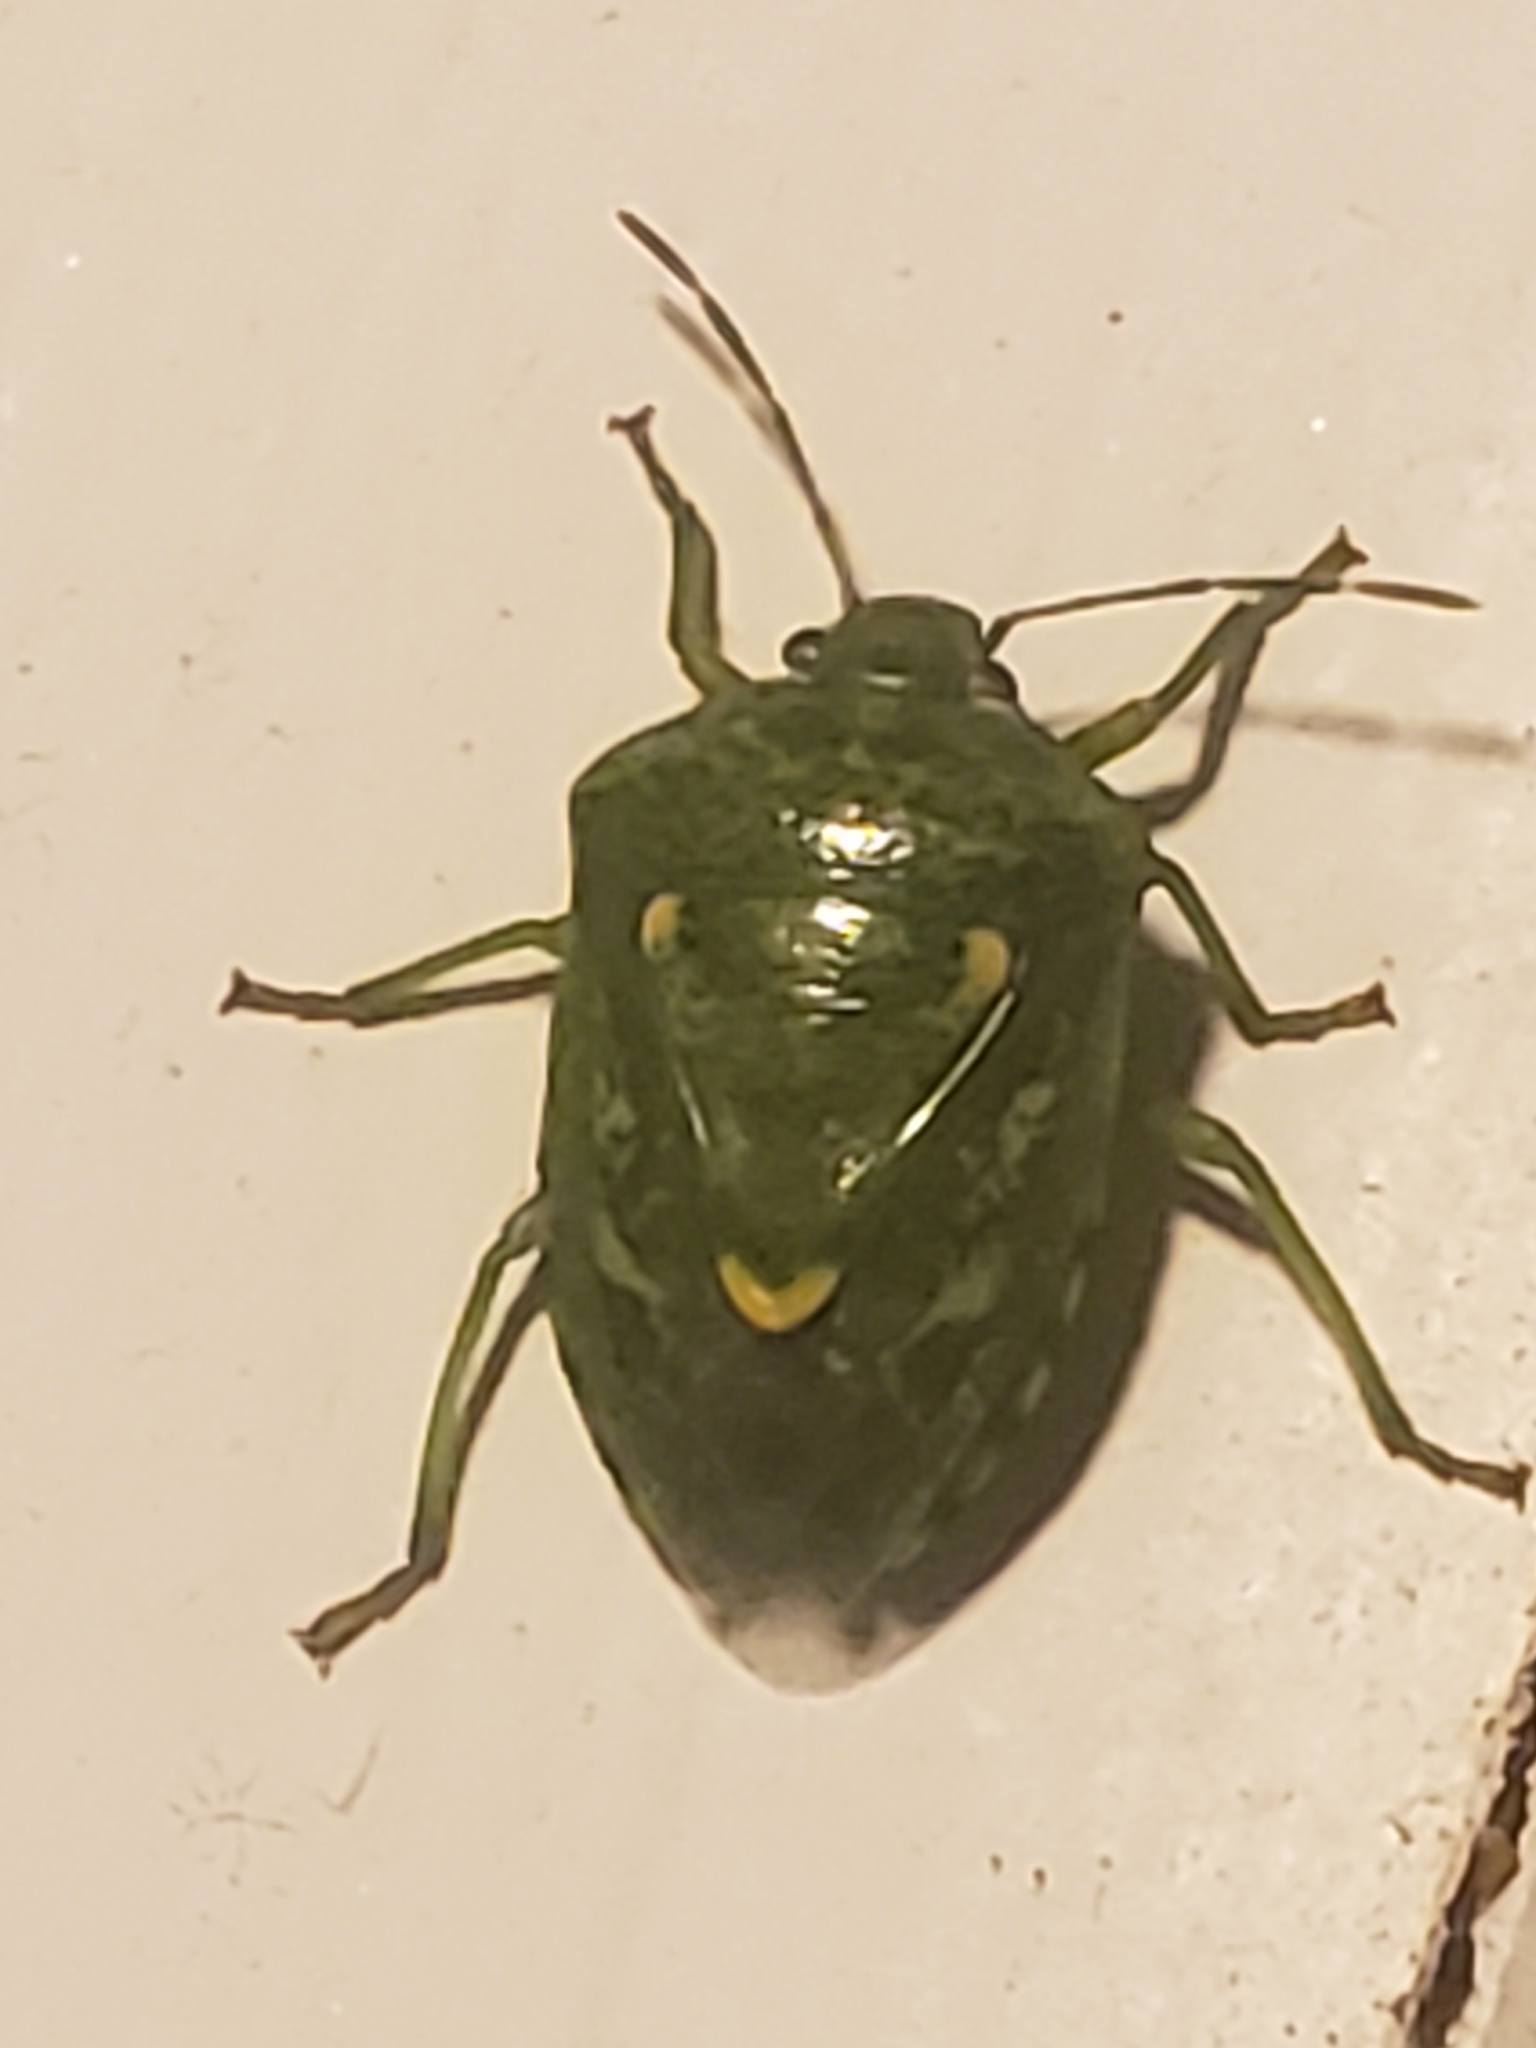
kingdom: Animalia
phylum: Arthropoda
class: Insecta
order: Hemiptera
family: Pentatomidae
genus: Banasa
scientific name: Banasa euchlora
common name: Cedar berry bug
